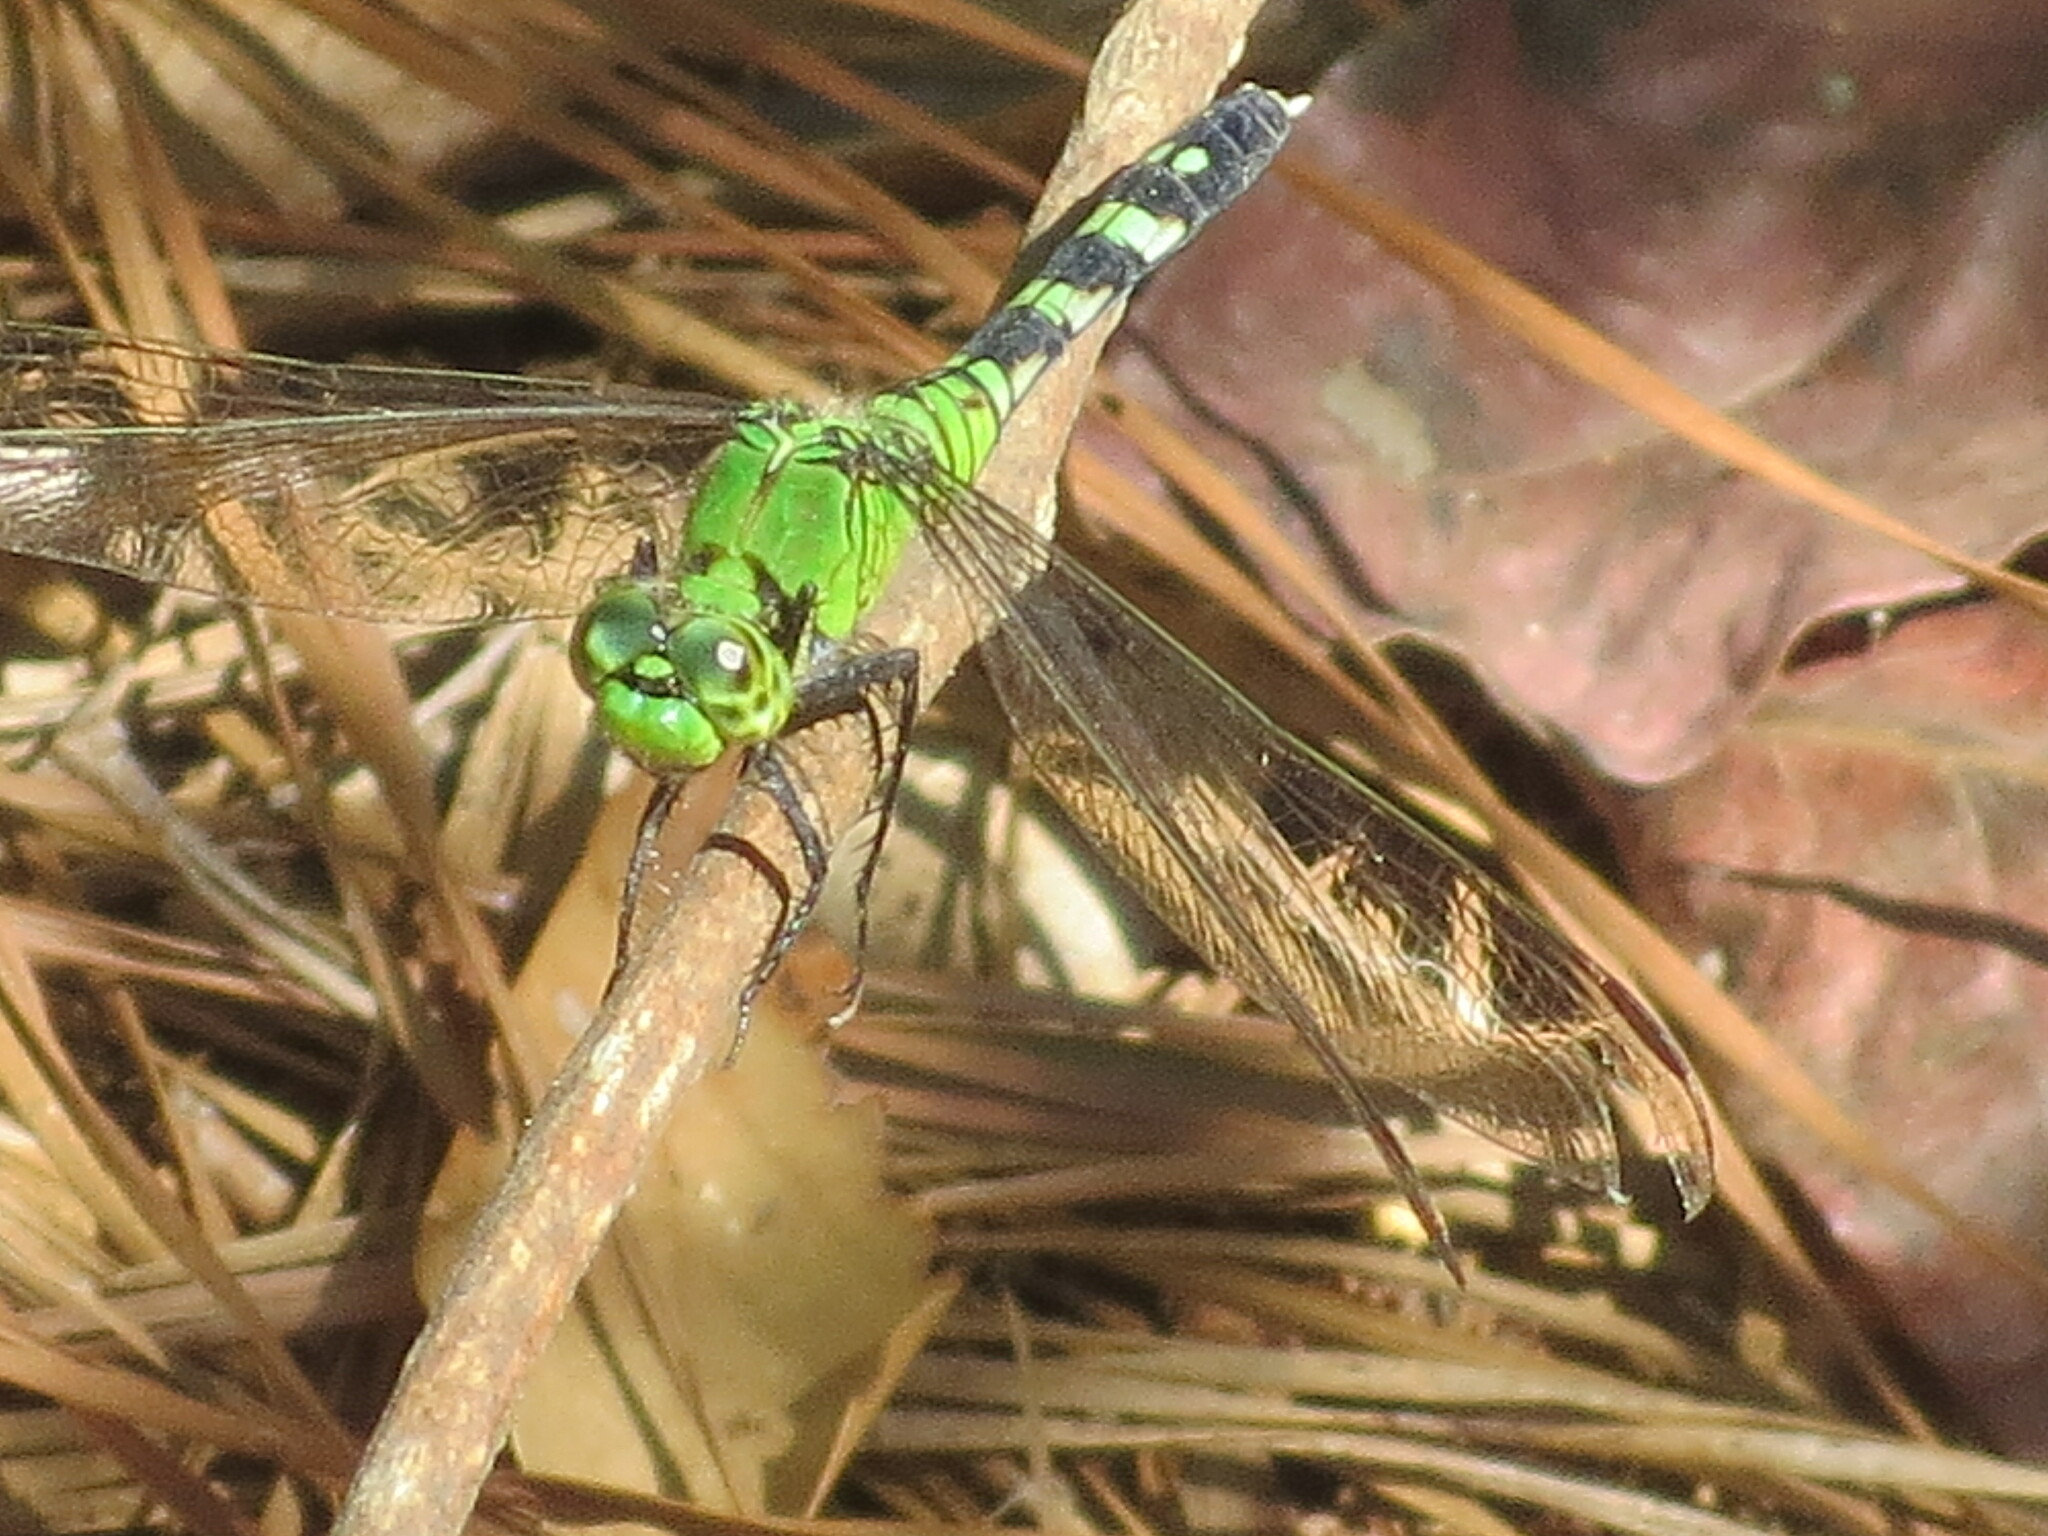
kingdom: Animalia
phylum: Arthropoda
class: Insecta
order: Odonata
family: Libellulidae
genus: Erythemis
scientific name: Erythemis simplicicollis
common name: Eastern pondhawk
